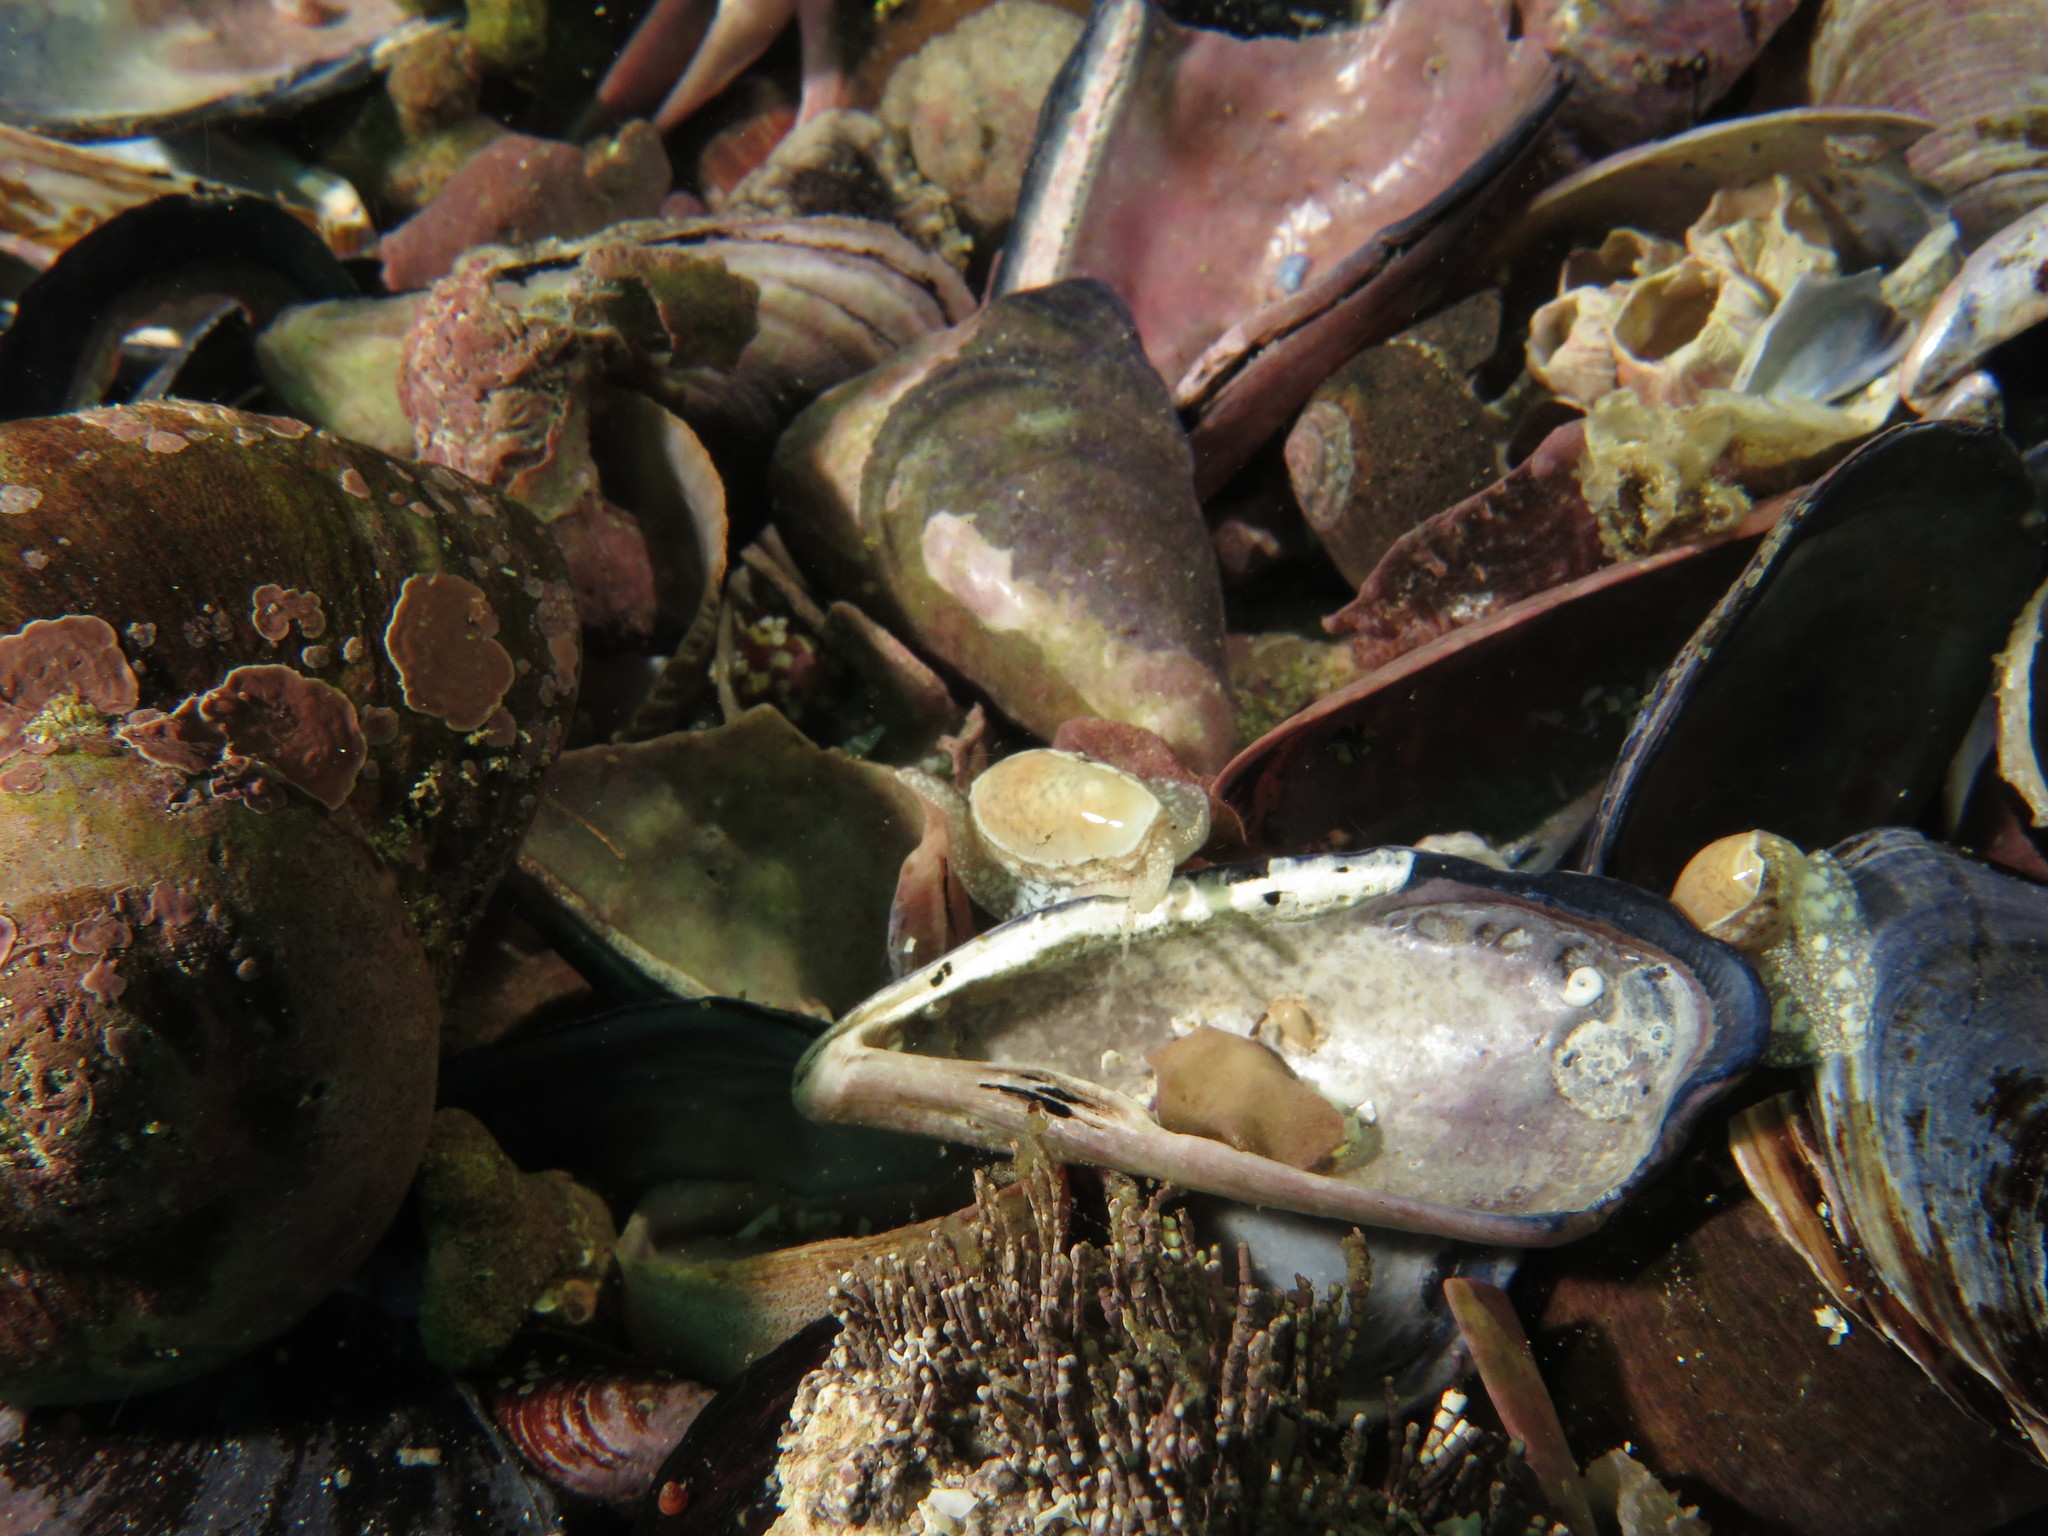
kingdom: Animalia
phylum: Mollusca
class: Gastropoda
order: Neogastropoda
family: Marginellidae
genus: Prunum
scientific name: Prunum capense
